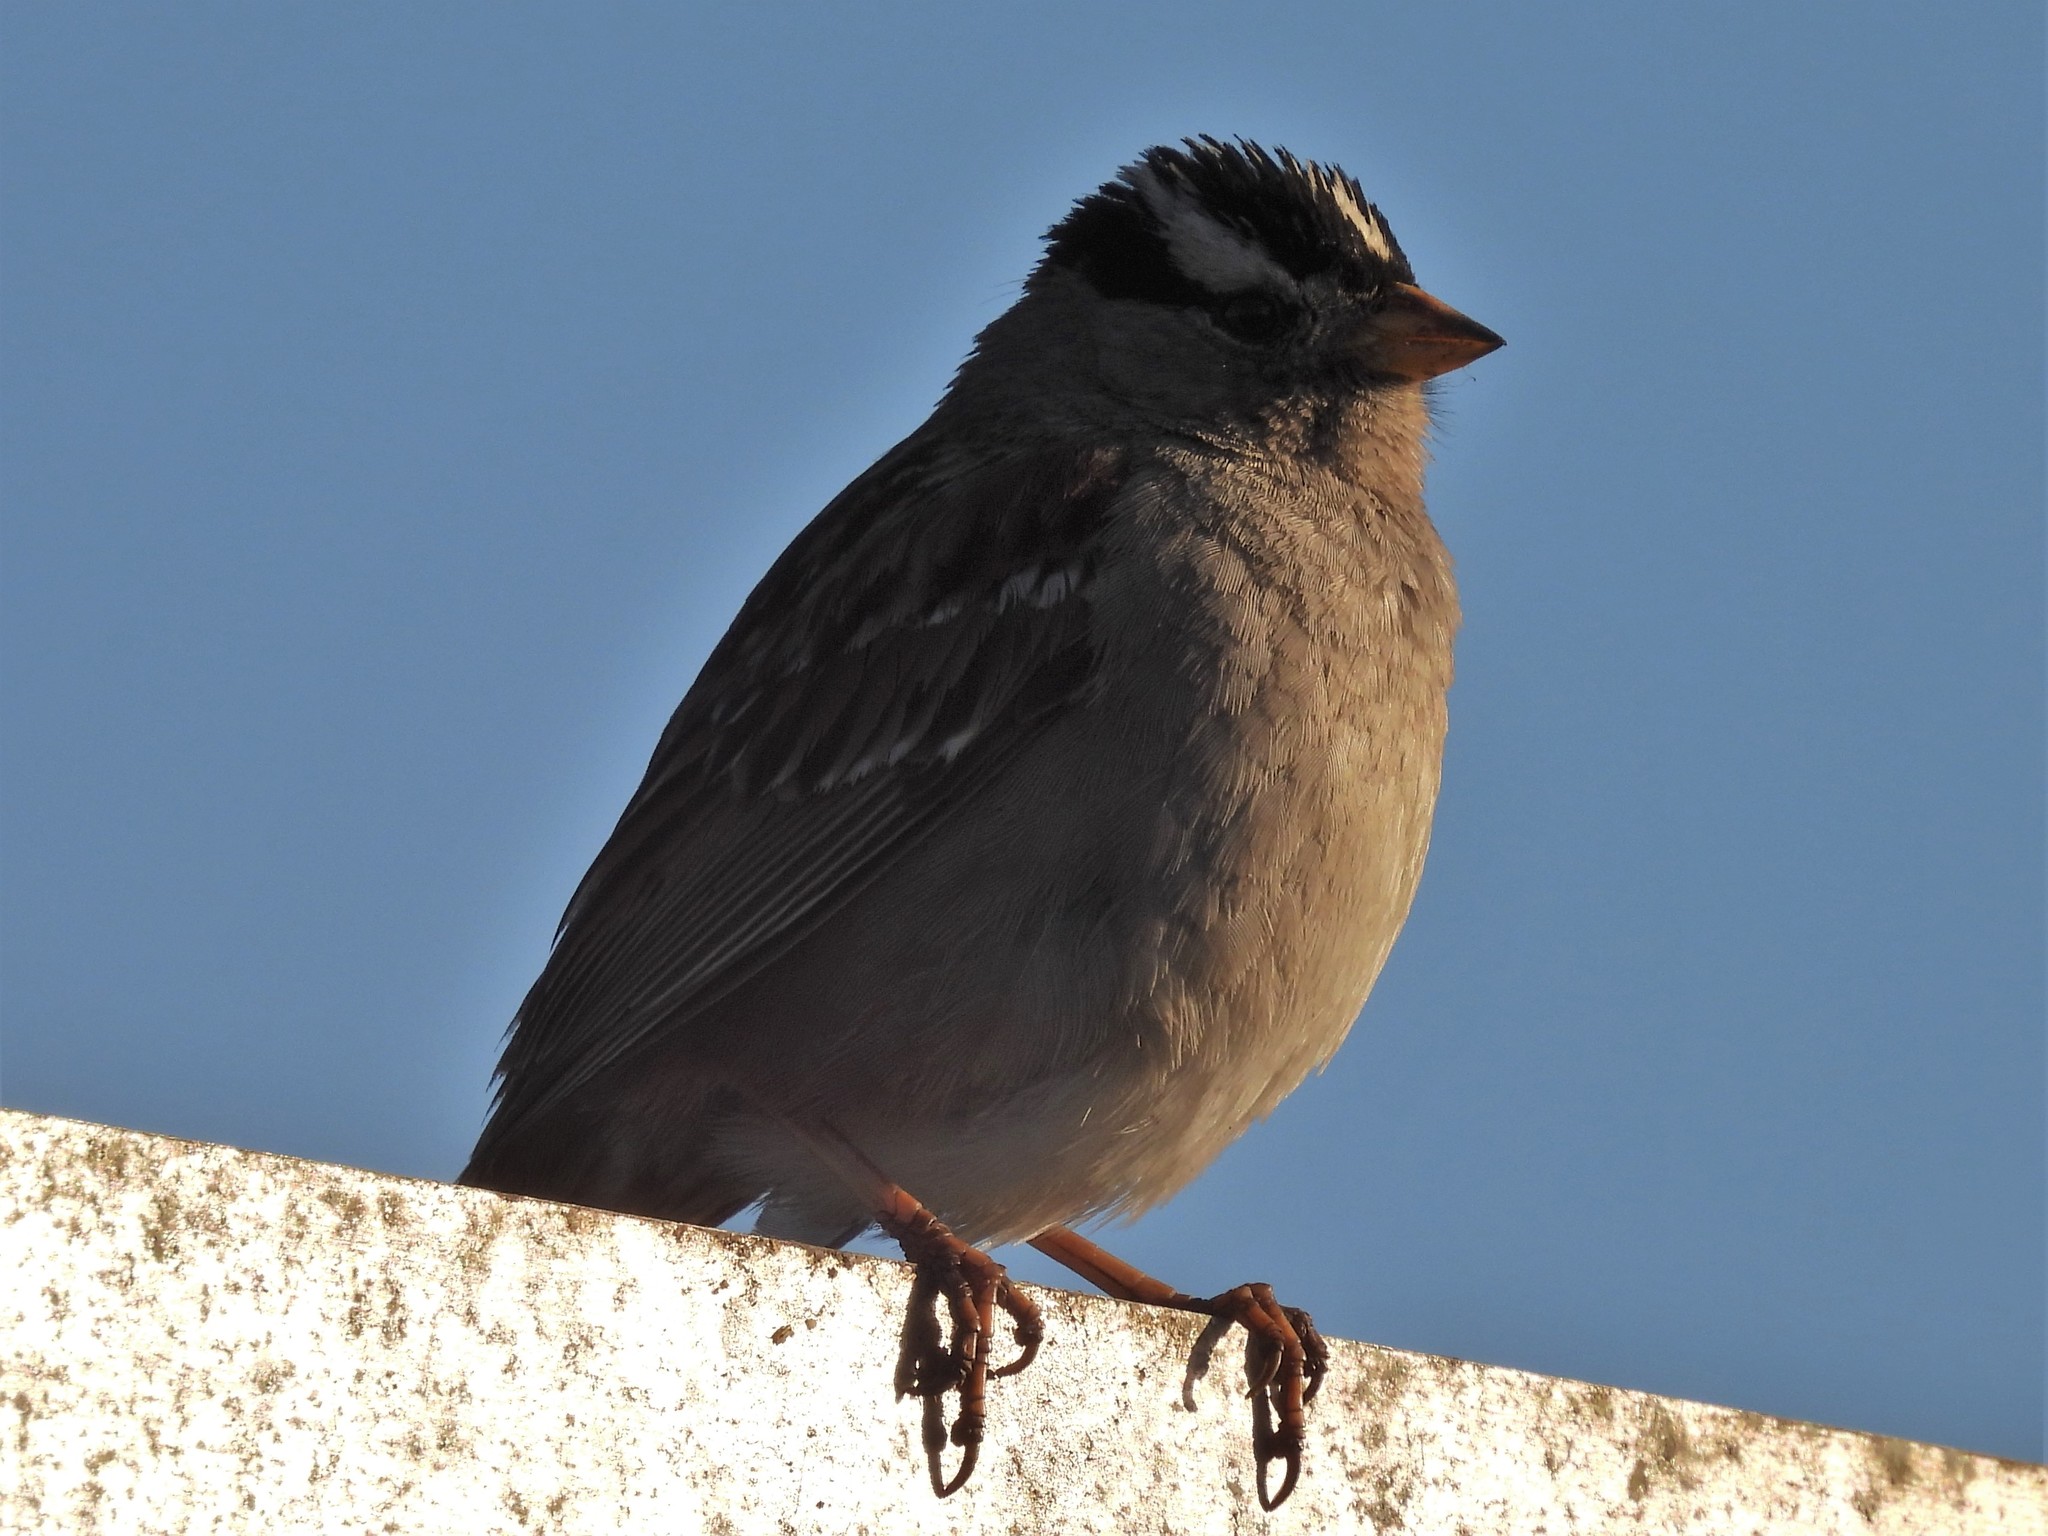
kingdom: Animalia
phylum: Chordata
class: Aves
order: Passeriformes
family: Passerellidae
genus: Zonotrichia
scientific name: Zonotrichia leucophrys
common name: White-crowned sparrow
